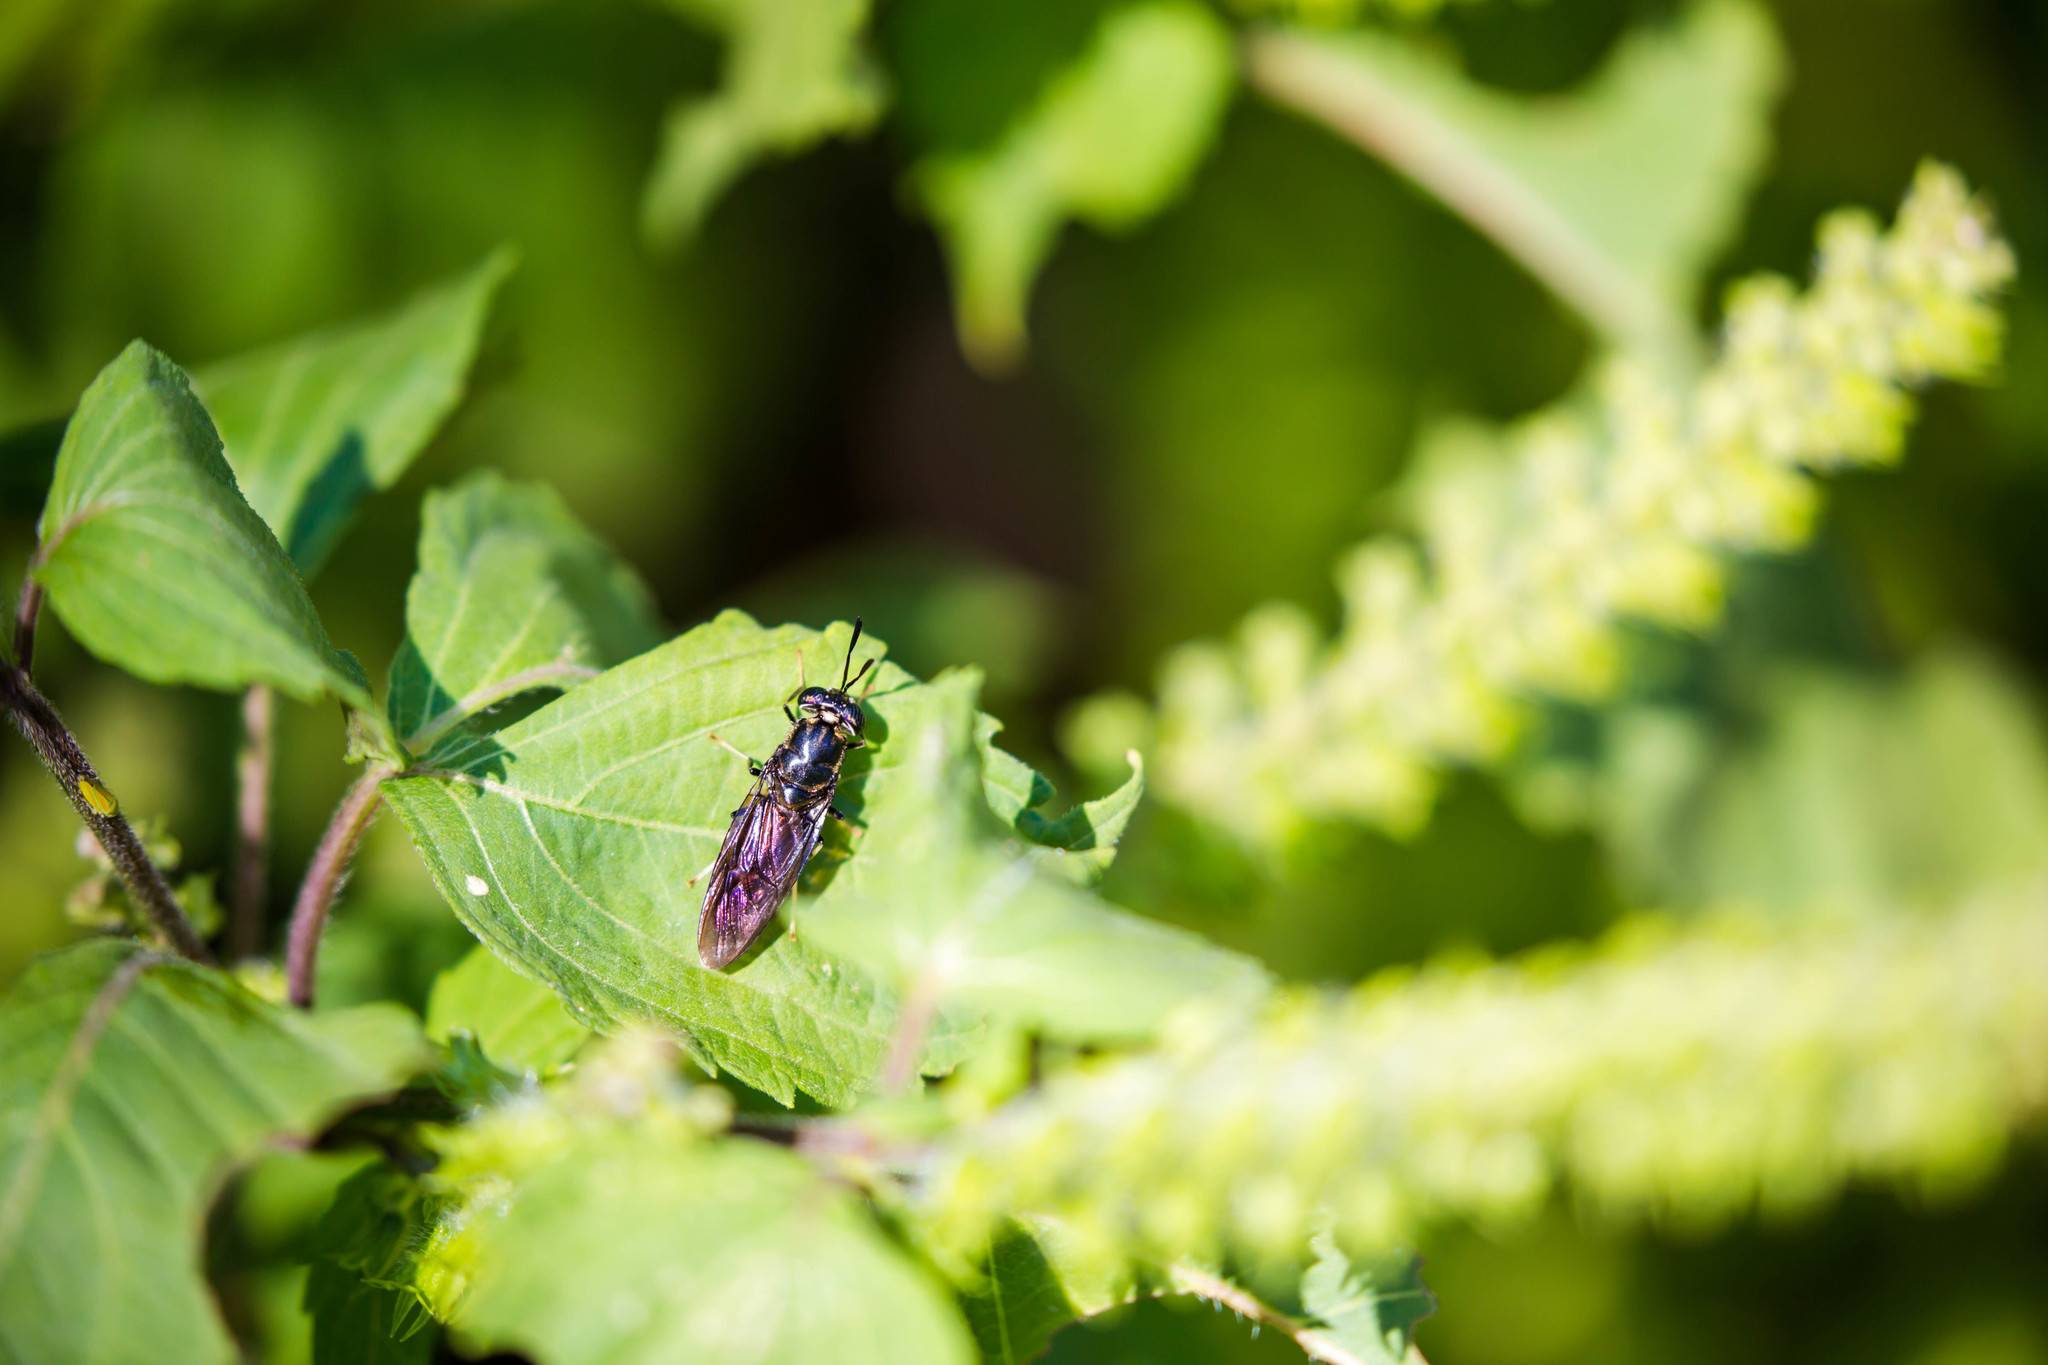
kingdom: Animalia
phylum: Arthropoda
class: Insecta
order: Diptera
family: Stratiomyidae
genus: Hermetia
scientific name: Hermetia illucens
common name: Black soldier fly
